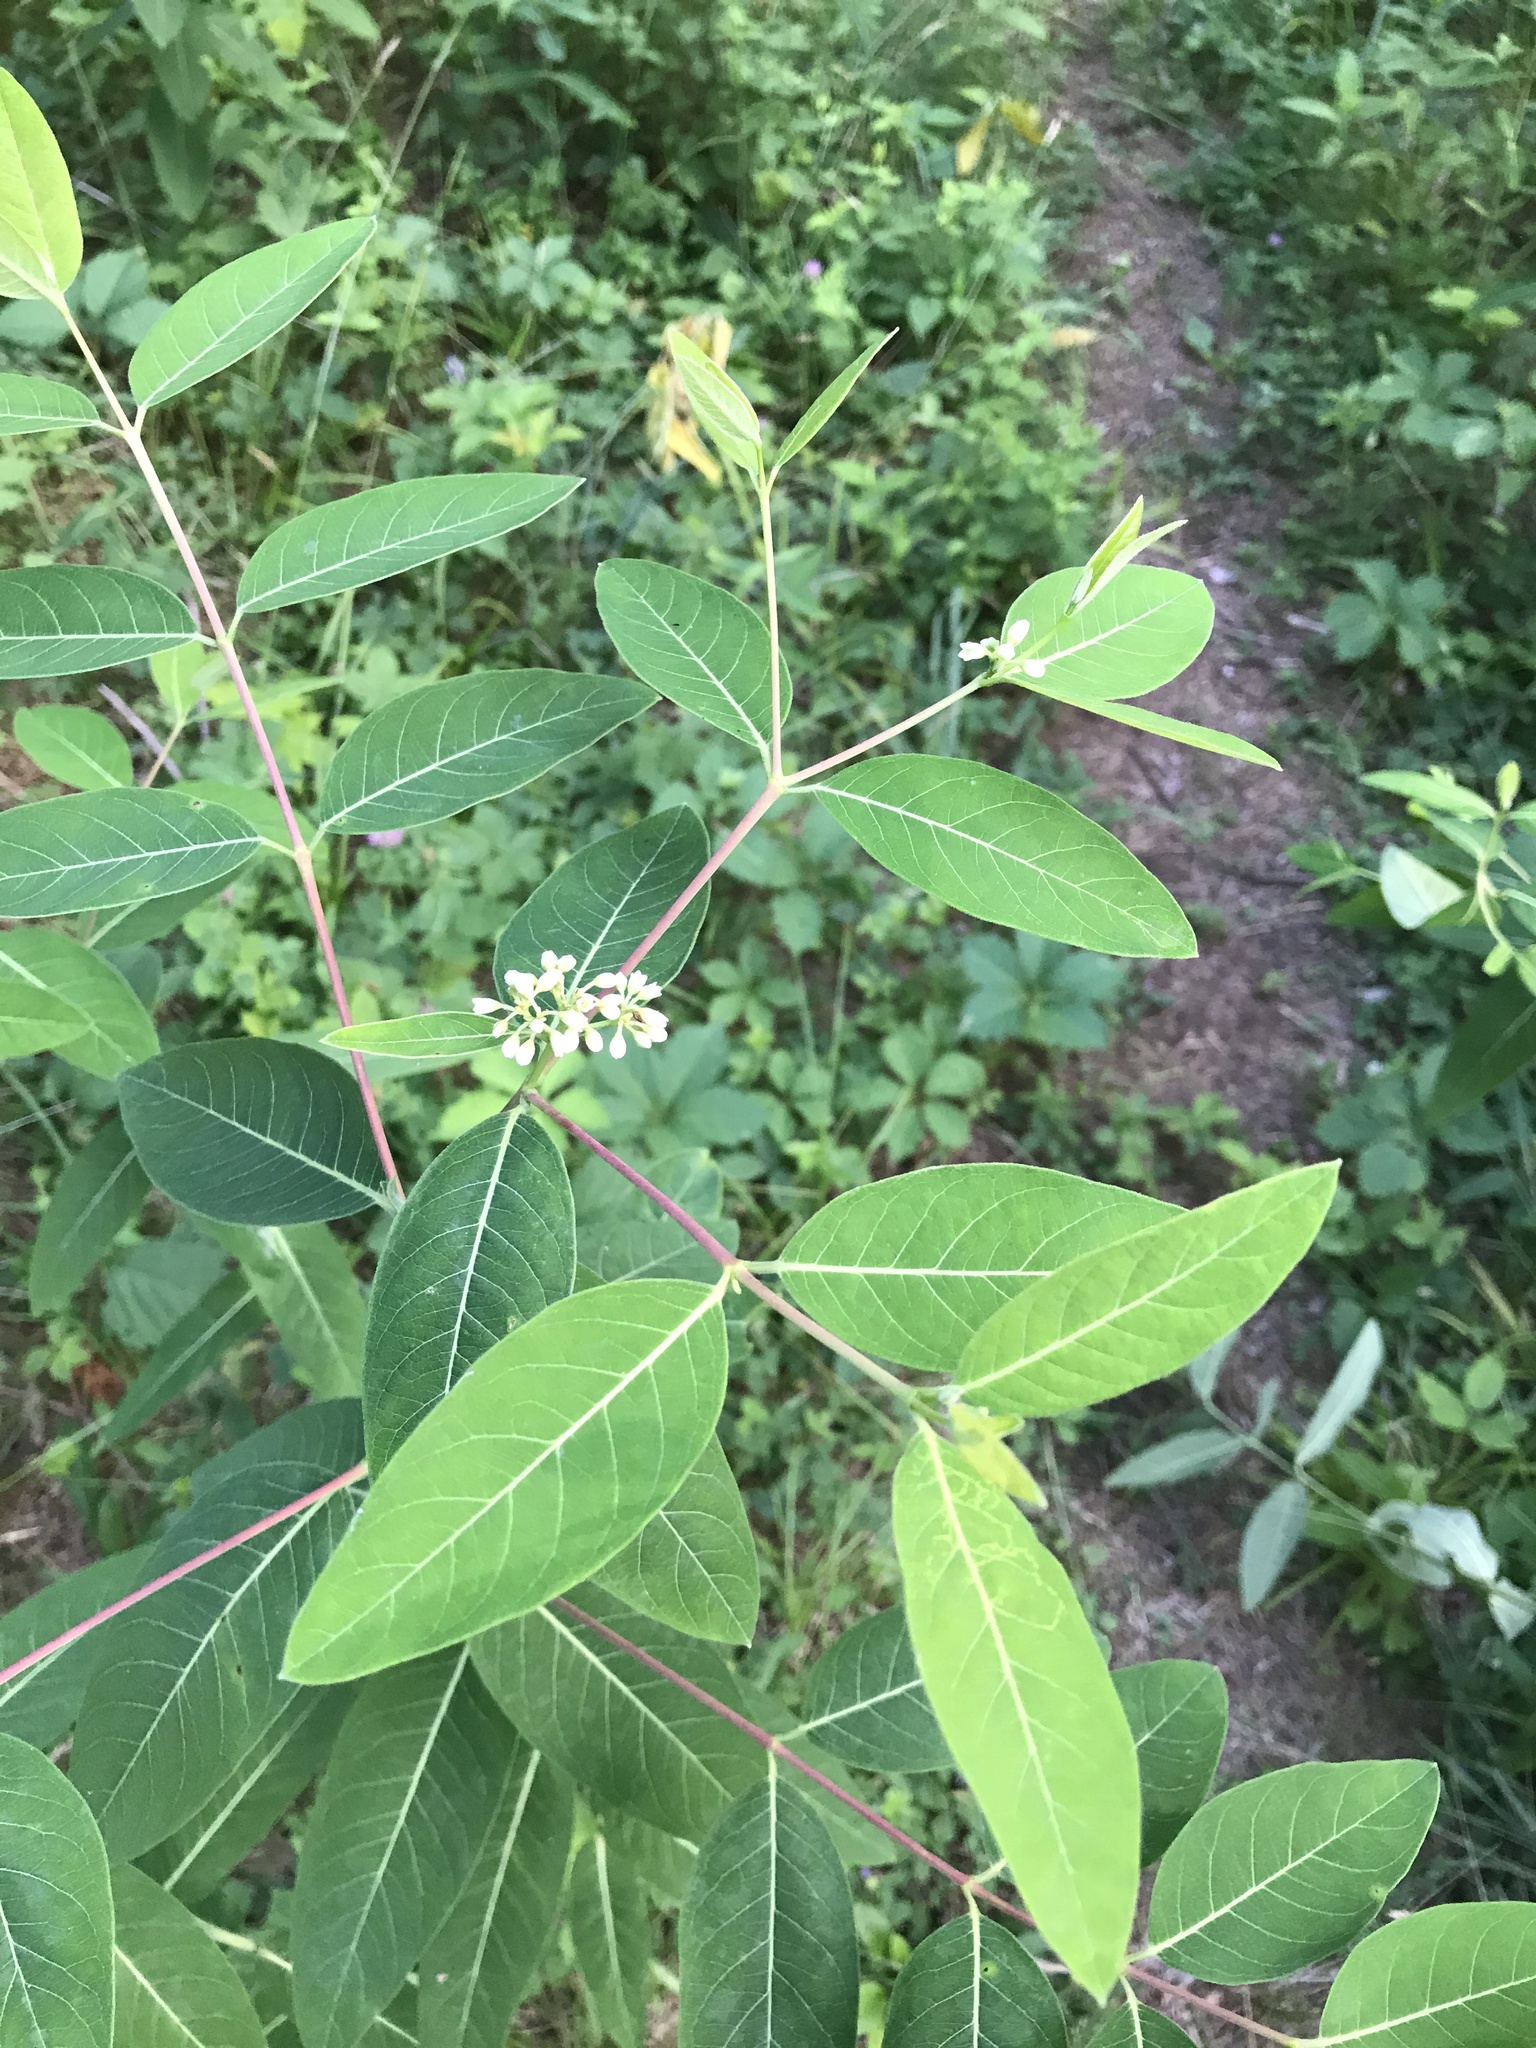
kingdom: Plantae
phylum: Tracheophyta
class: Magnoliopsida
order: Gentianales
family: Apocynaceae
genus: Apocynum
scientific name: Apocynum cannabinum
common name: Hemp dogbane
